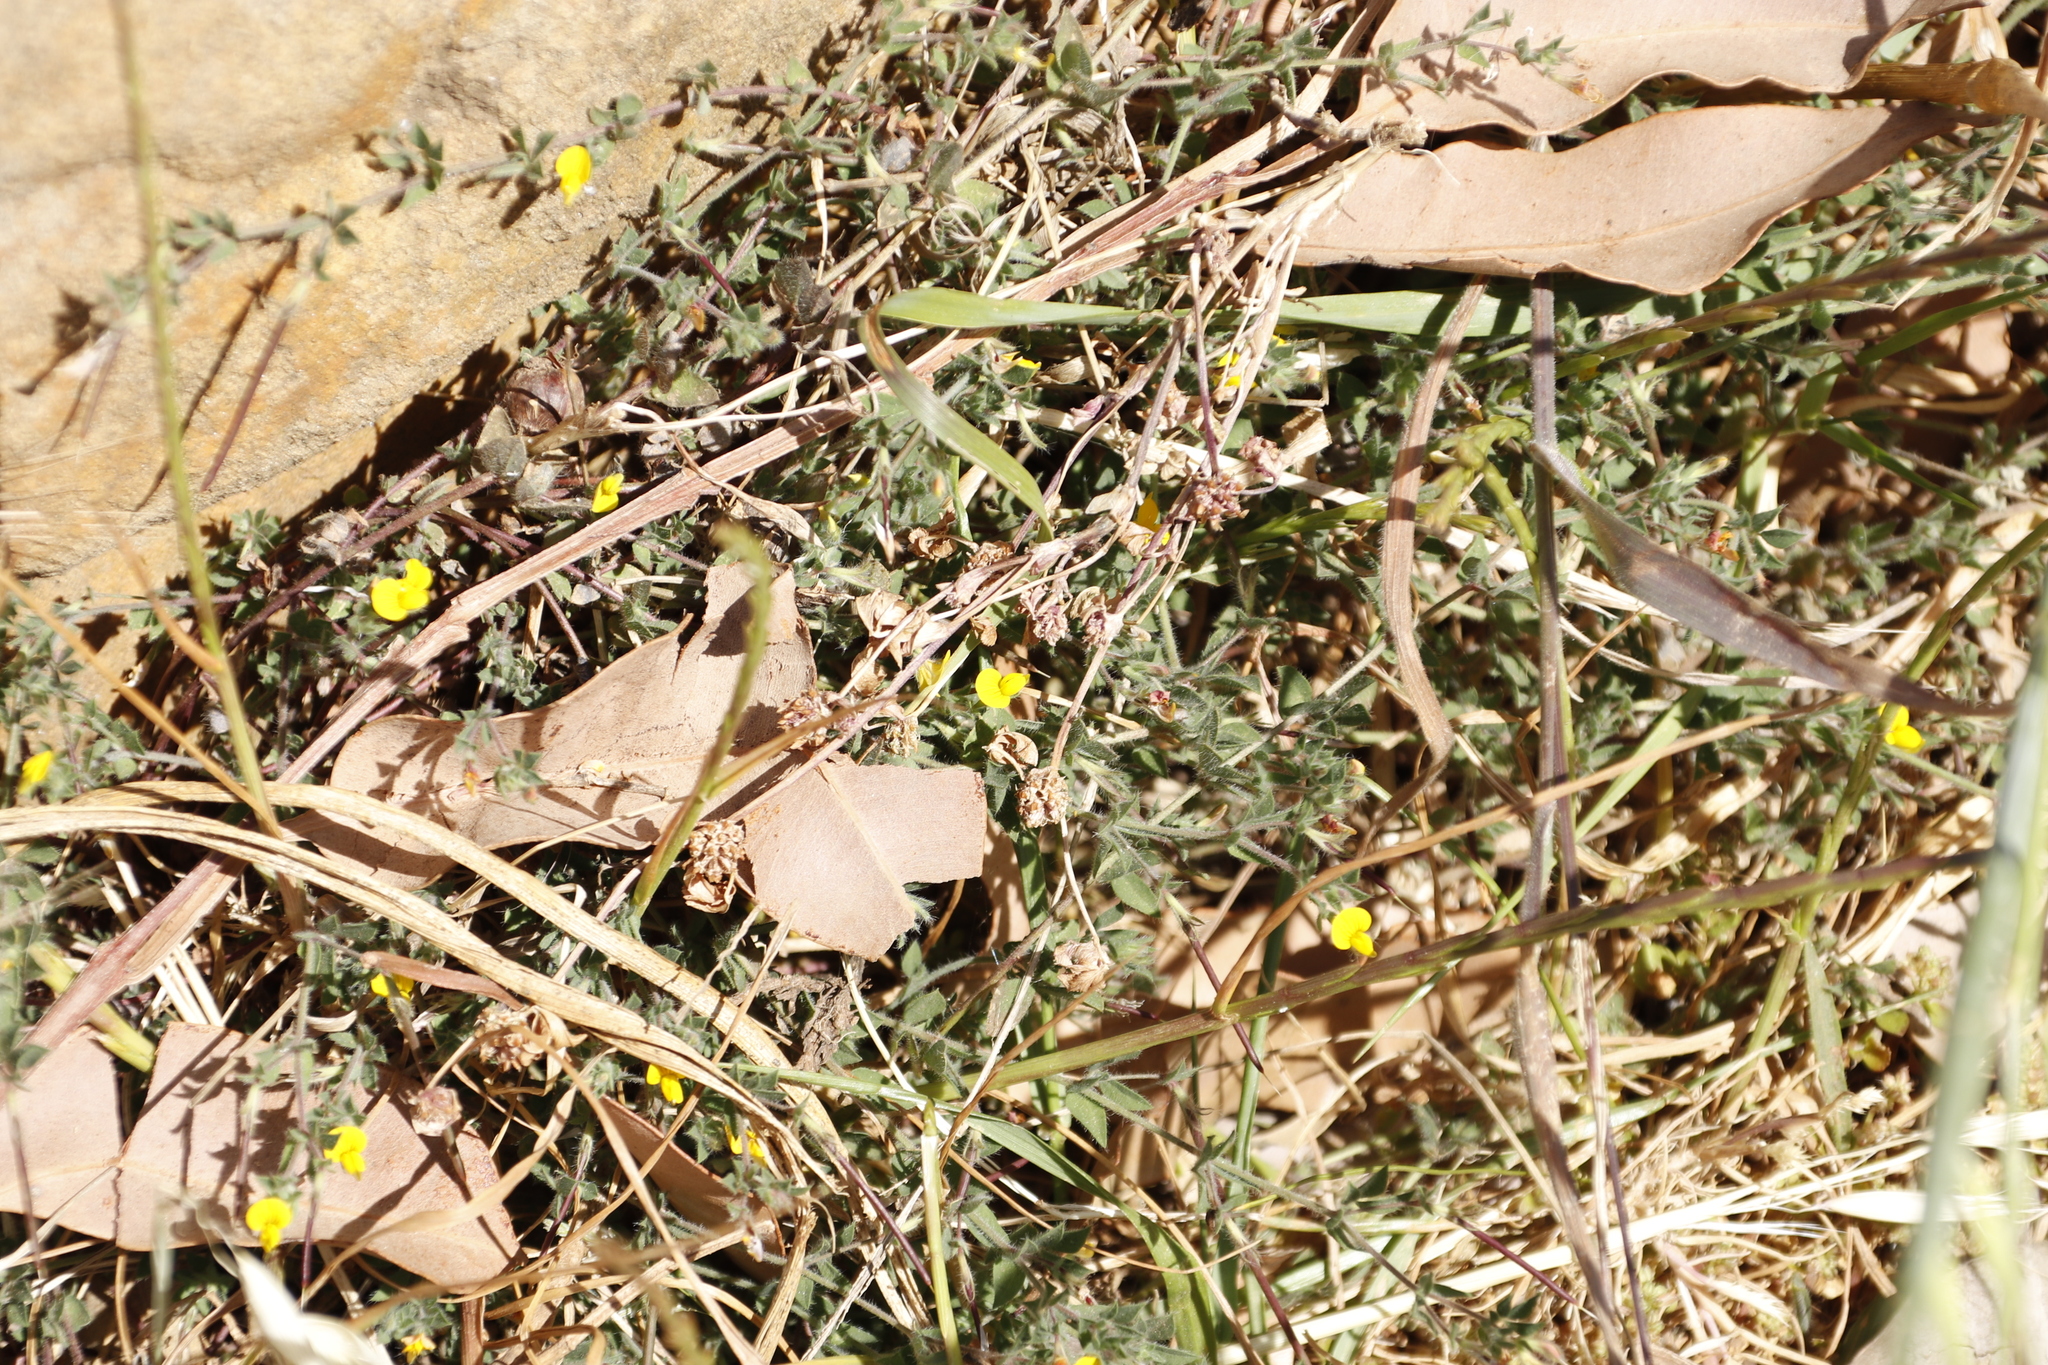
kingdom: Plantae
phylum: Tracheophyta
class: Magnoliopsida
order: Fabales
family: Fabaceae
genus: Lotus
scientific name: Lotus subbiflorus
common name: Hairy bird's-foot trefoil
